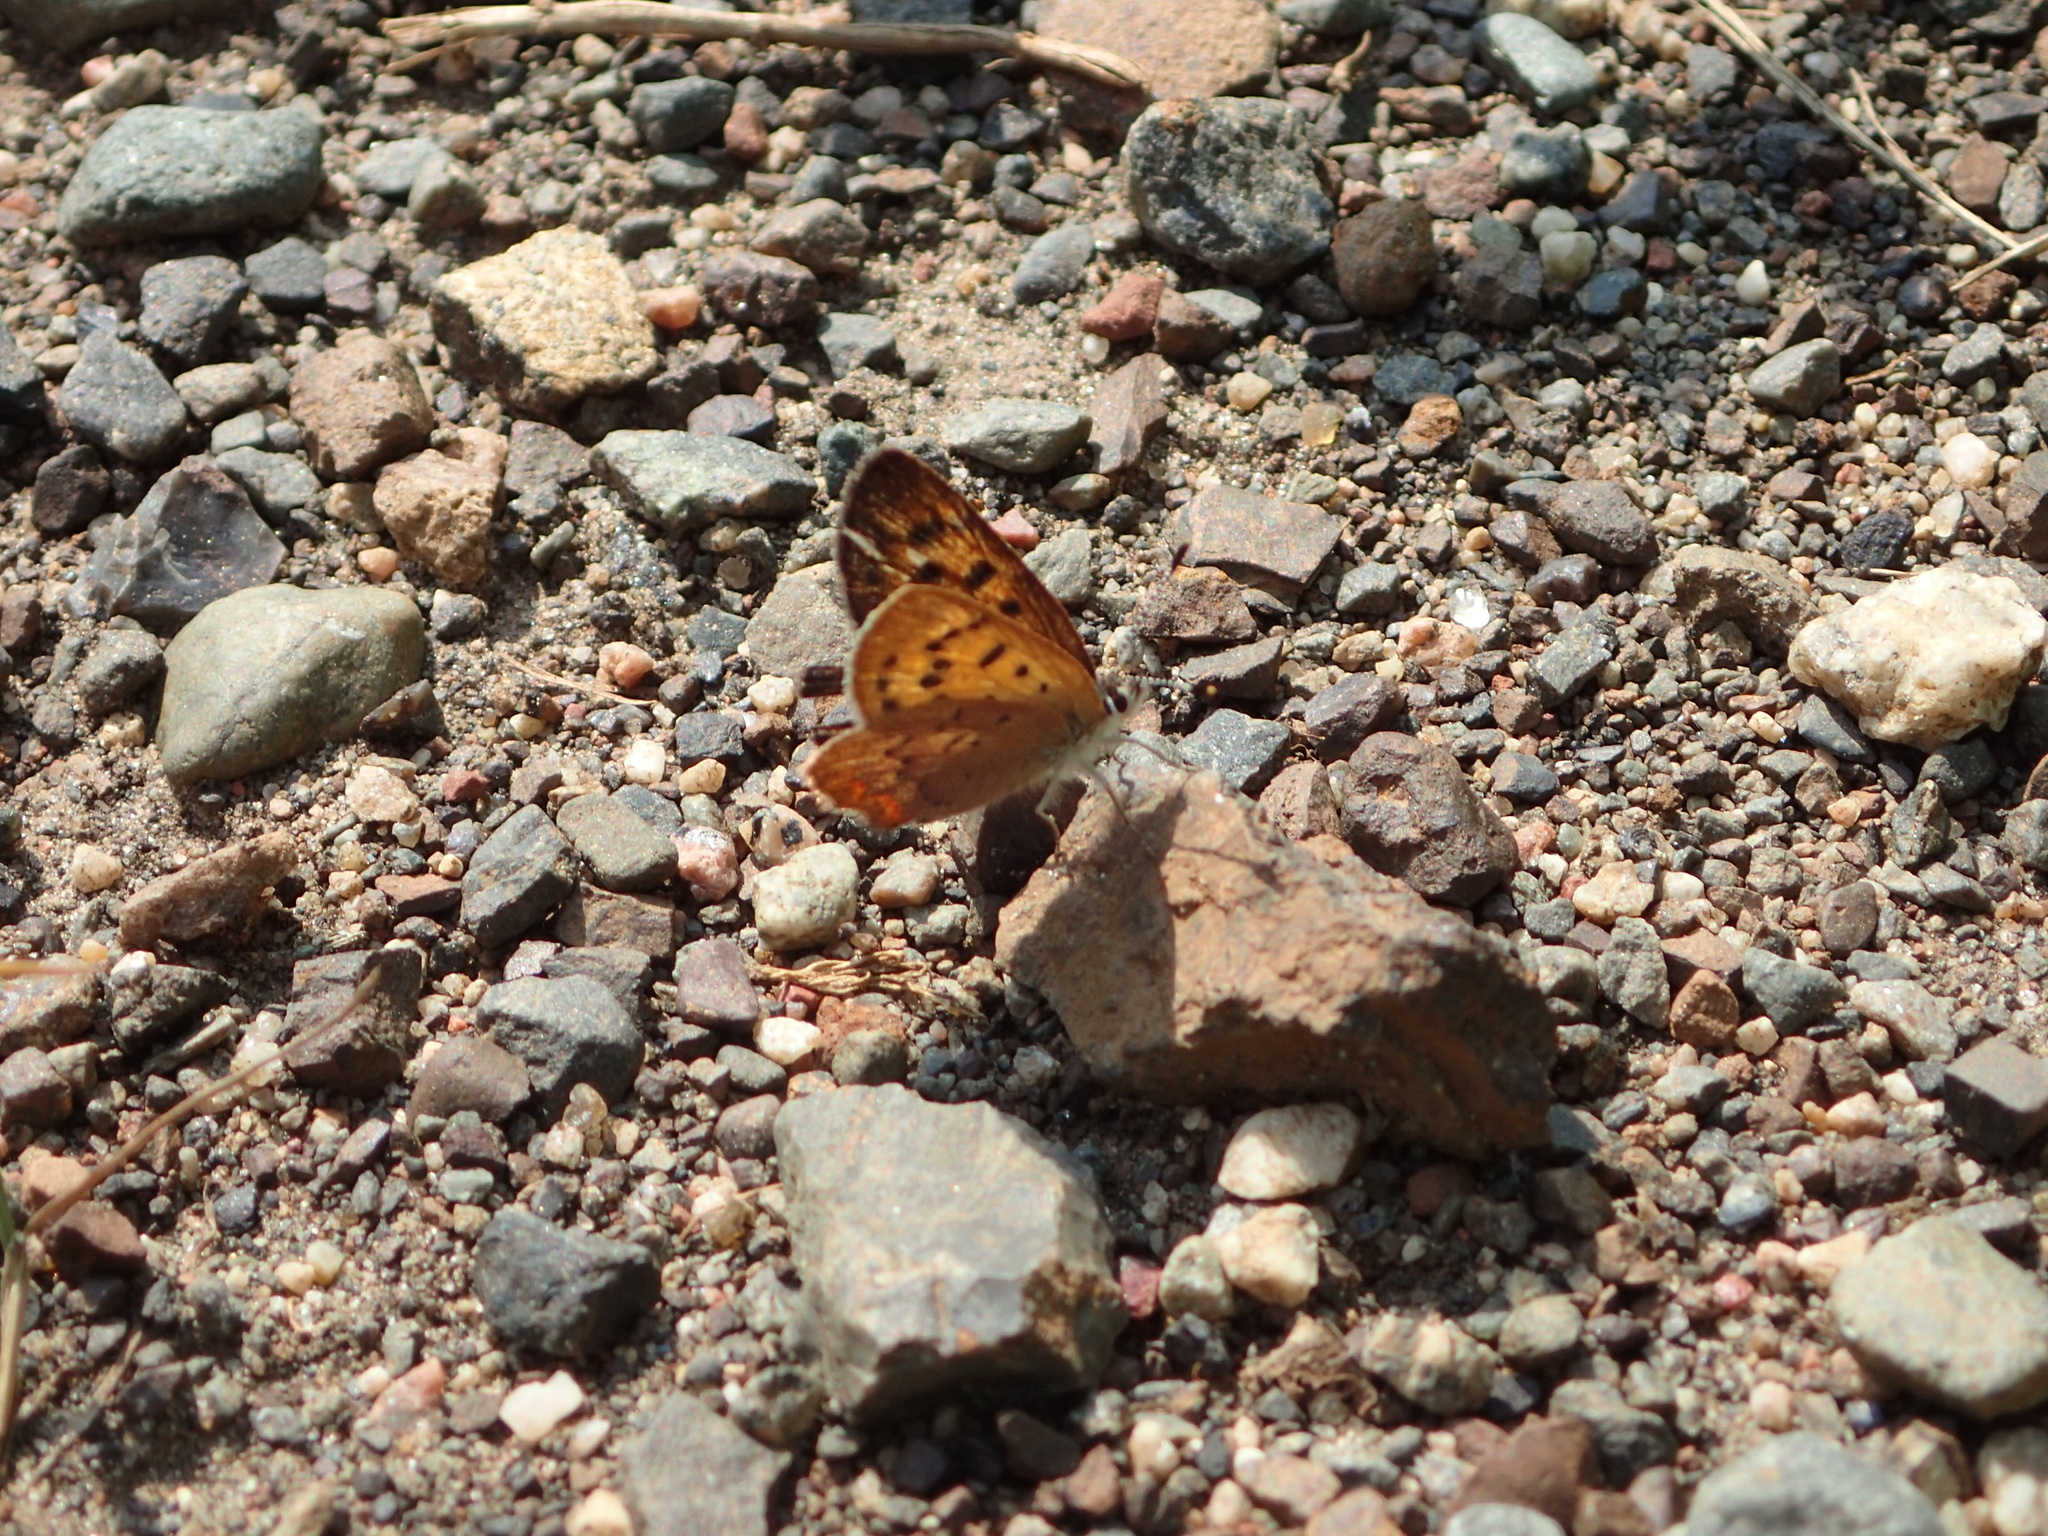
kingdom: Animalia
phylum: Arthropoda
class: Insecta
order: Lepidoptera
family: Lycaenidae
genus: Tharsalea
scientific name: Tharsalea dorcas
